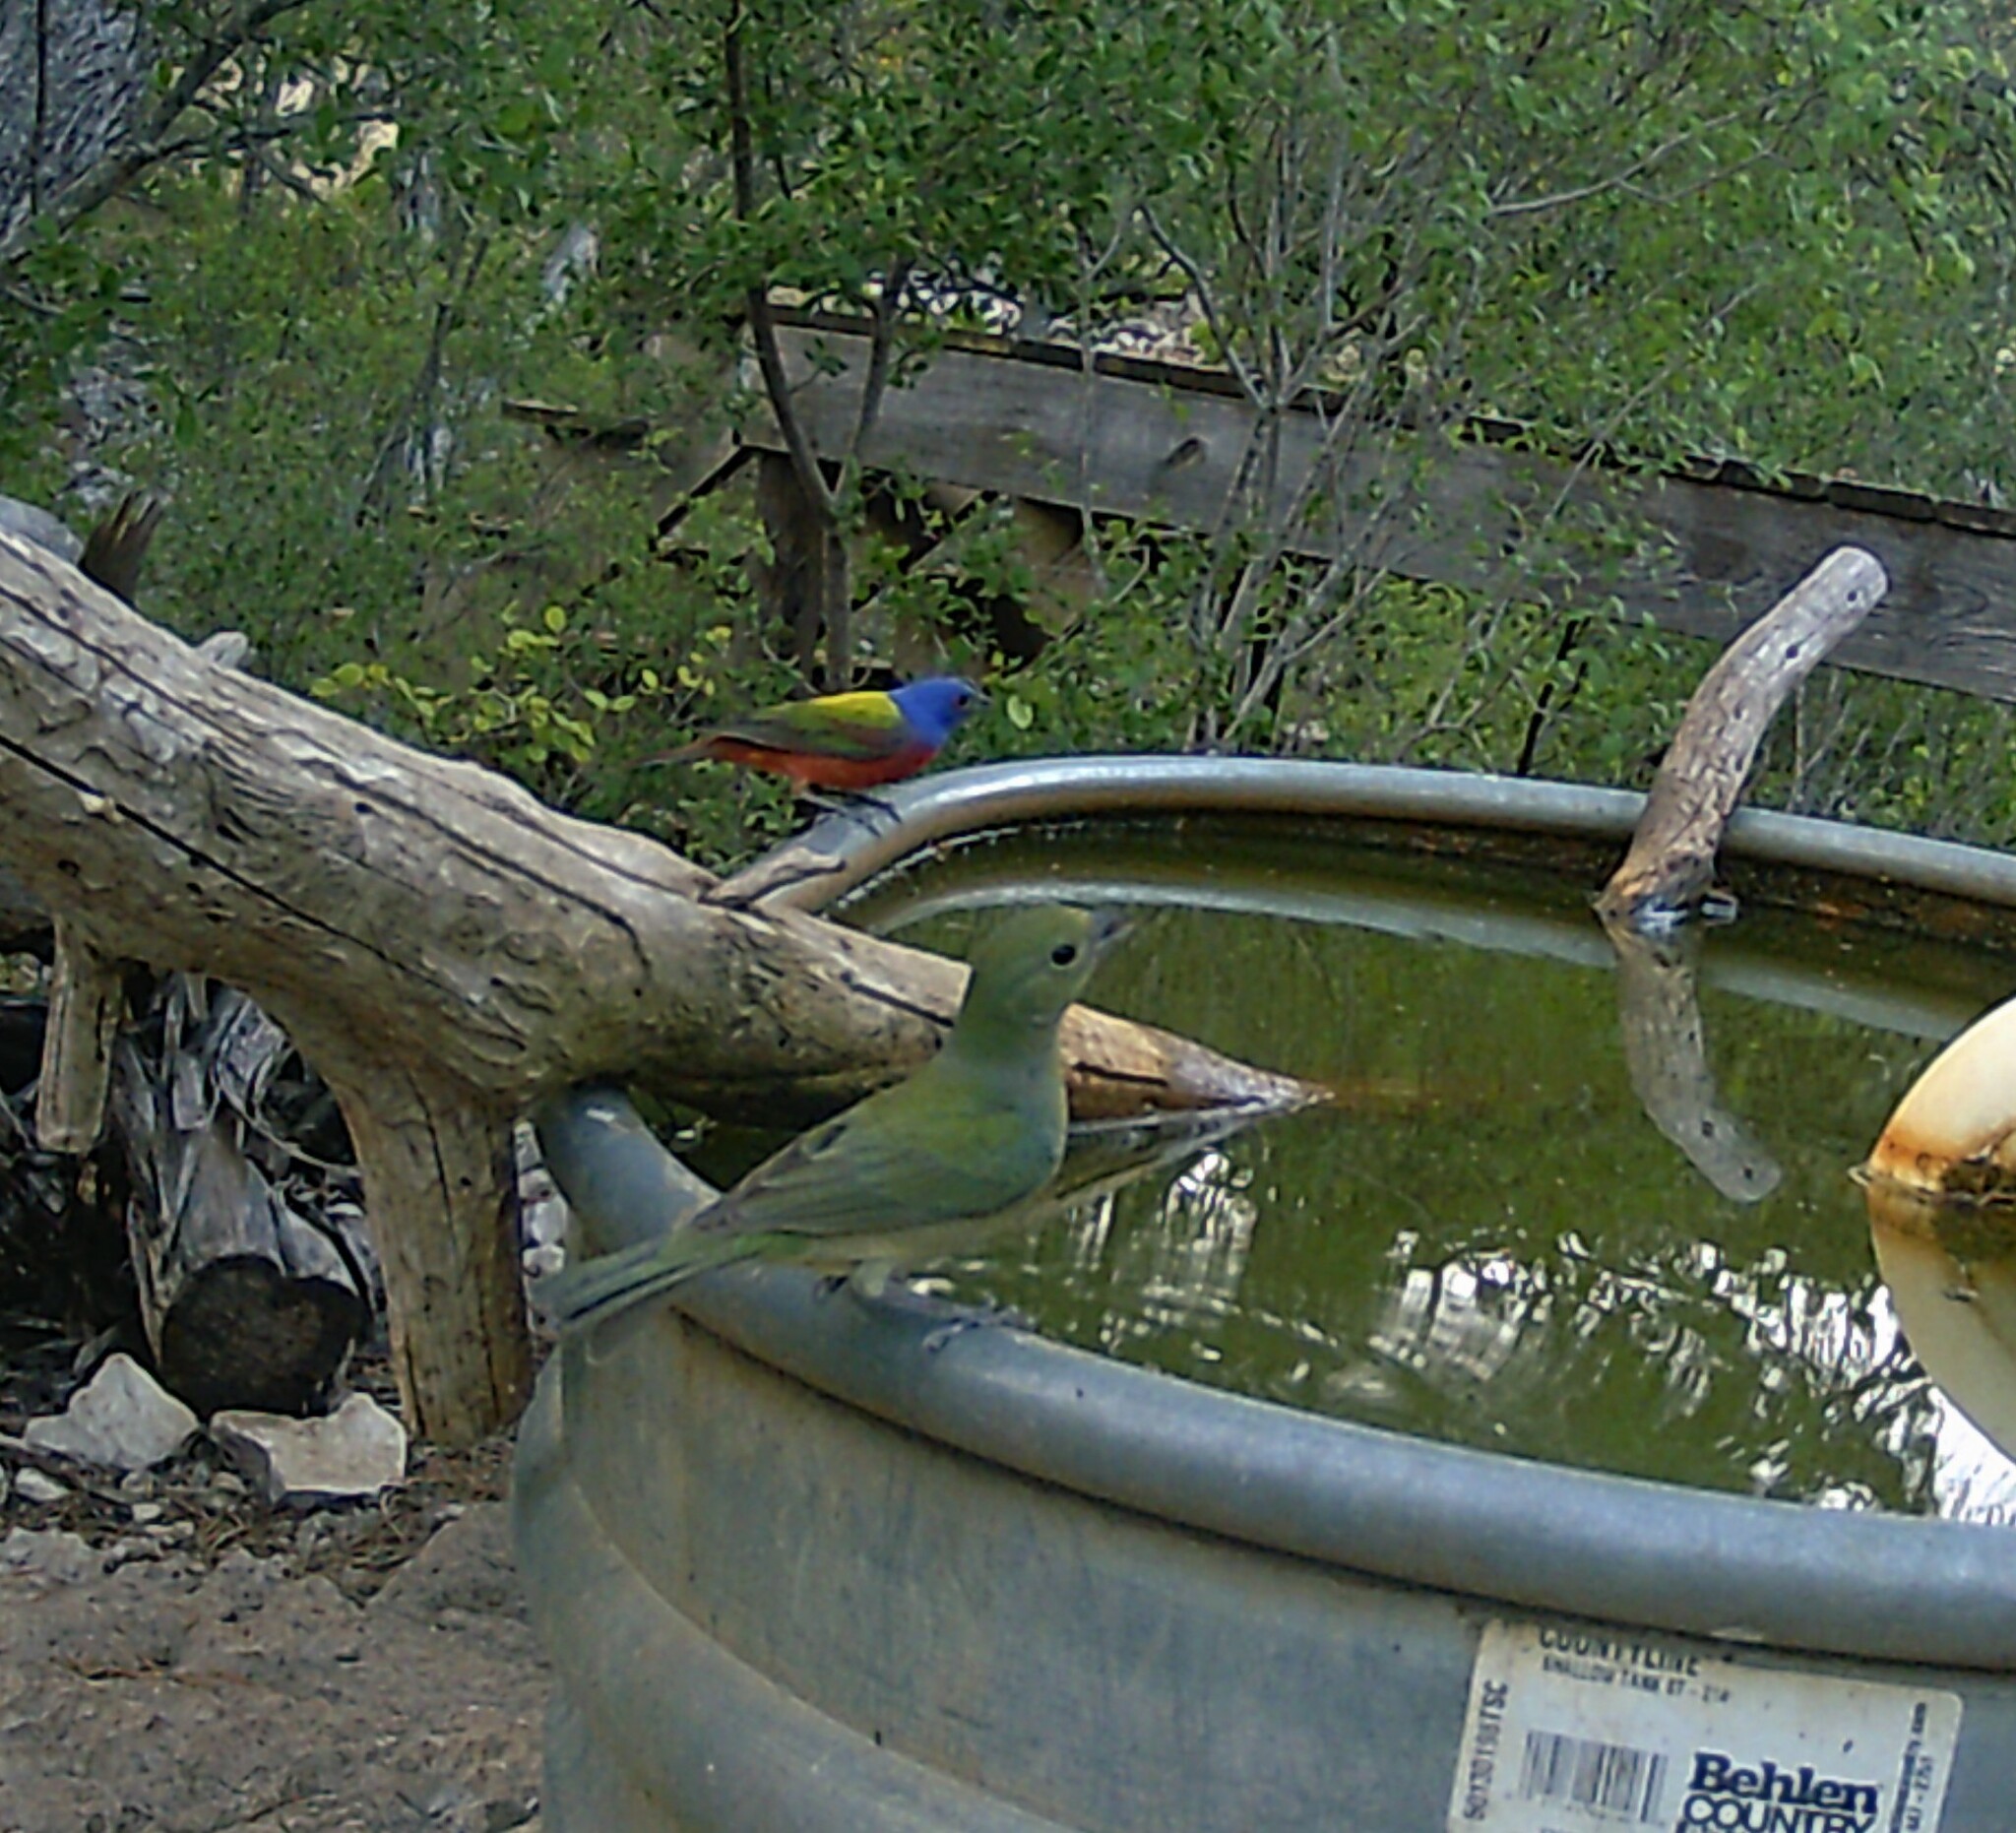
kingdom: Animalia
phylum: Chordata
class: Aves
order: Passeriformes
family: Cardinalidae
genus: Passerina
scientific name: Passerina ciris
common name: Painted bunting
